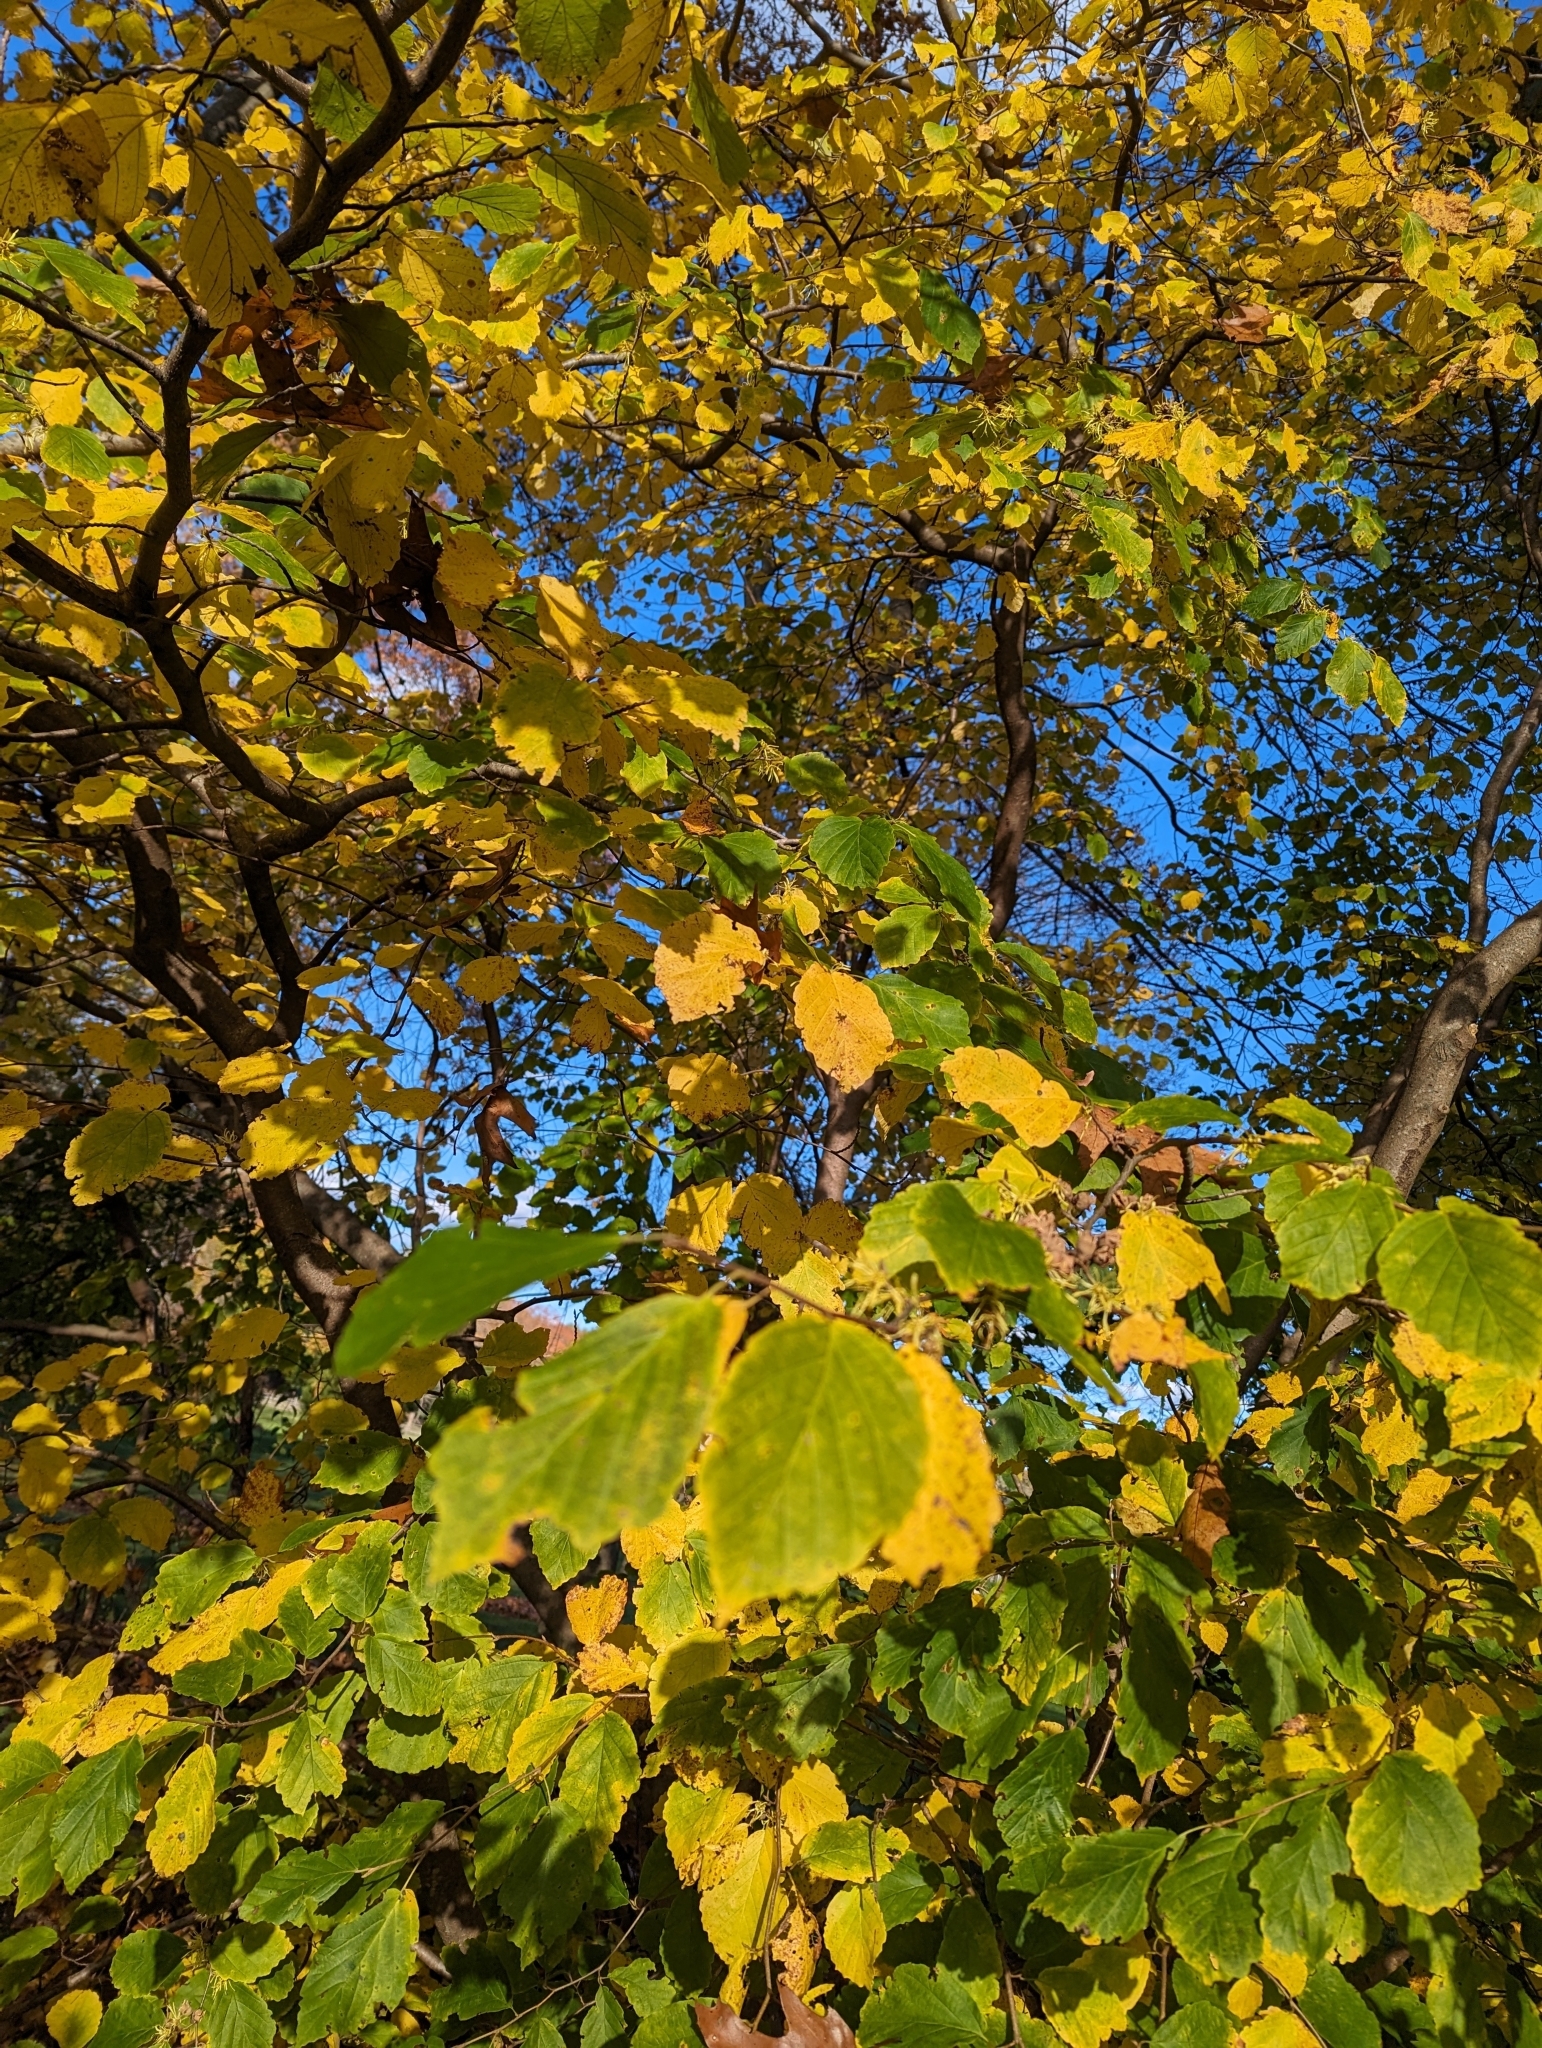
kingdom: Plantae
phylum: Tracheophyta
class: Magnoliopsida
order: Saxifragales
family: Hamamelidaceae
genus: Hamamelis
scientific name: Hamamelis virginiana
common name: Witch-hazel
